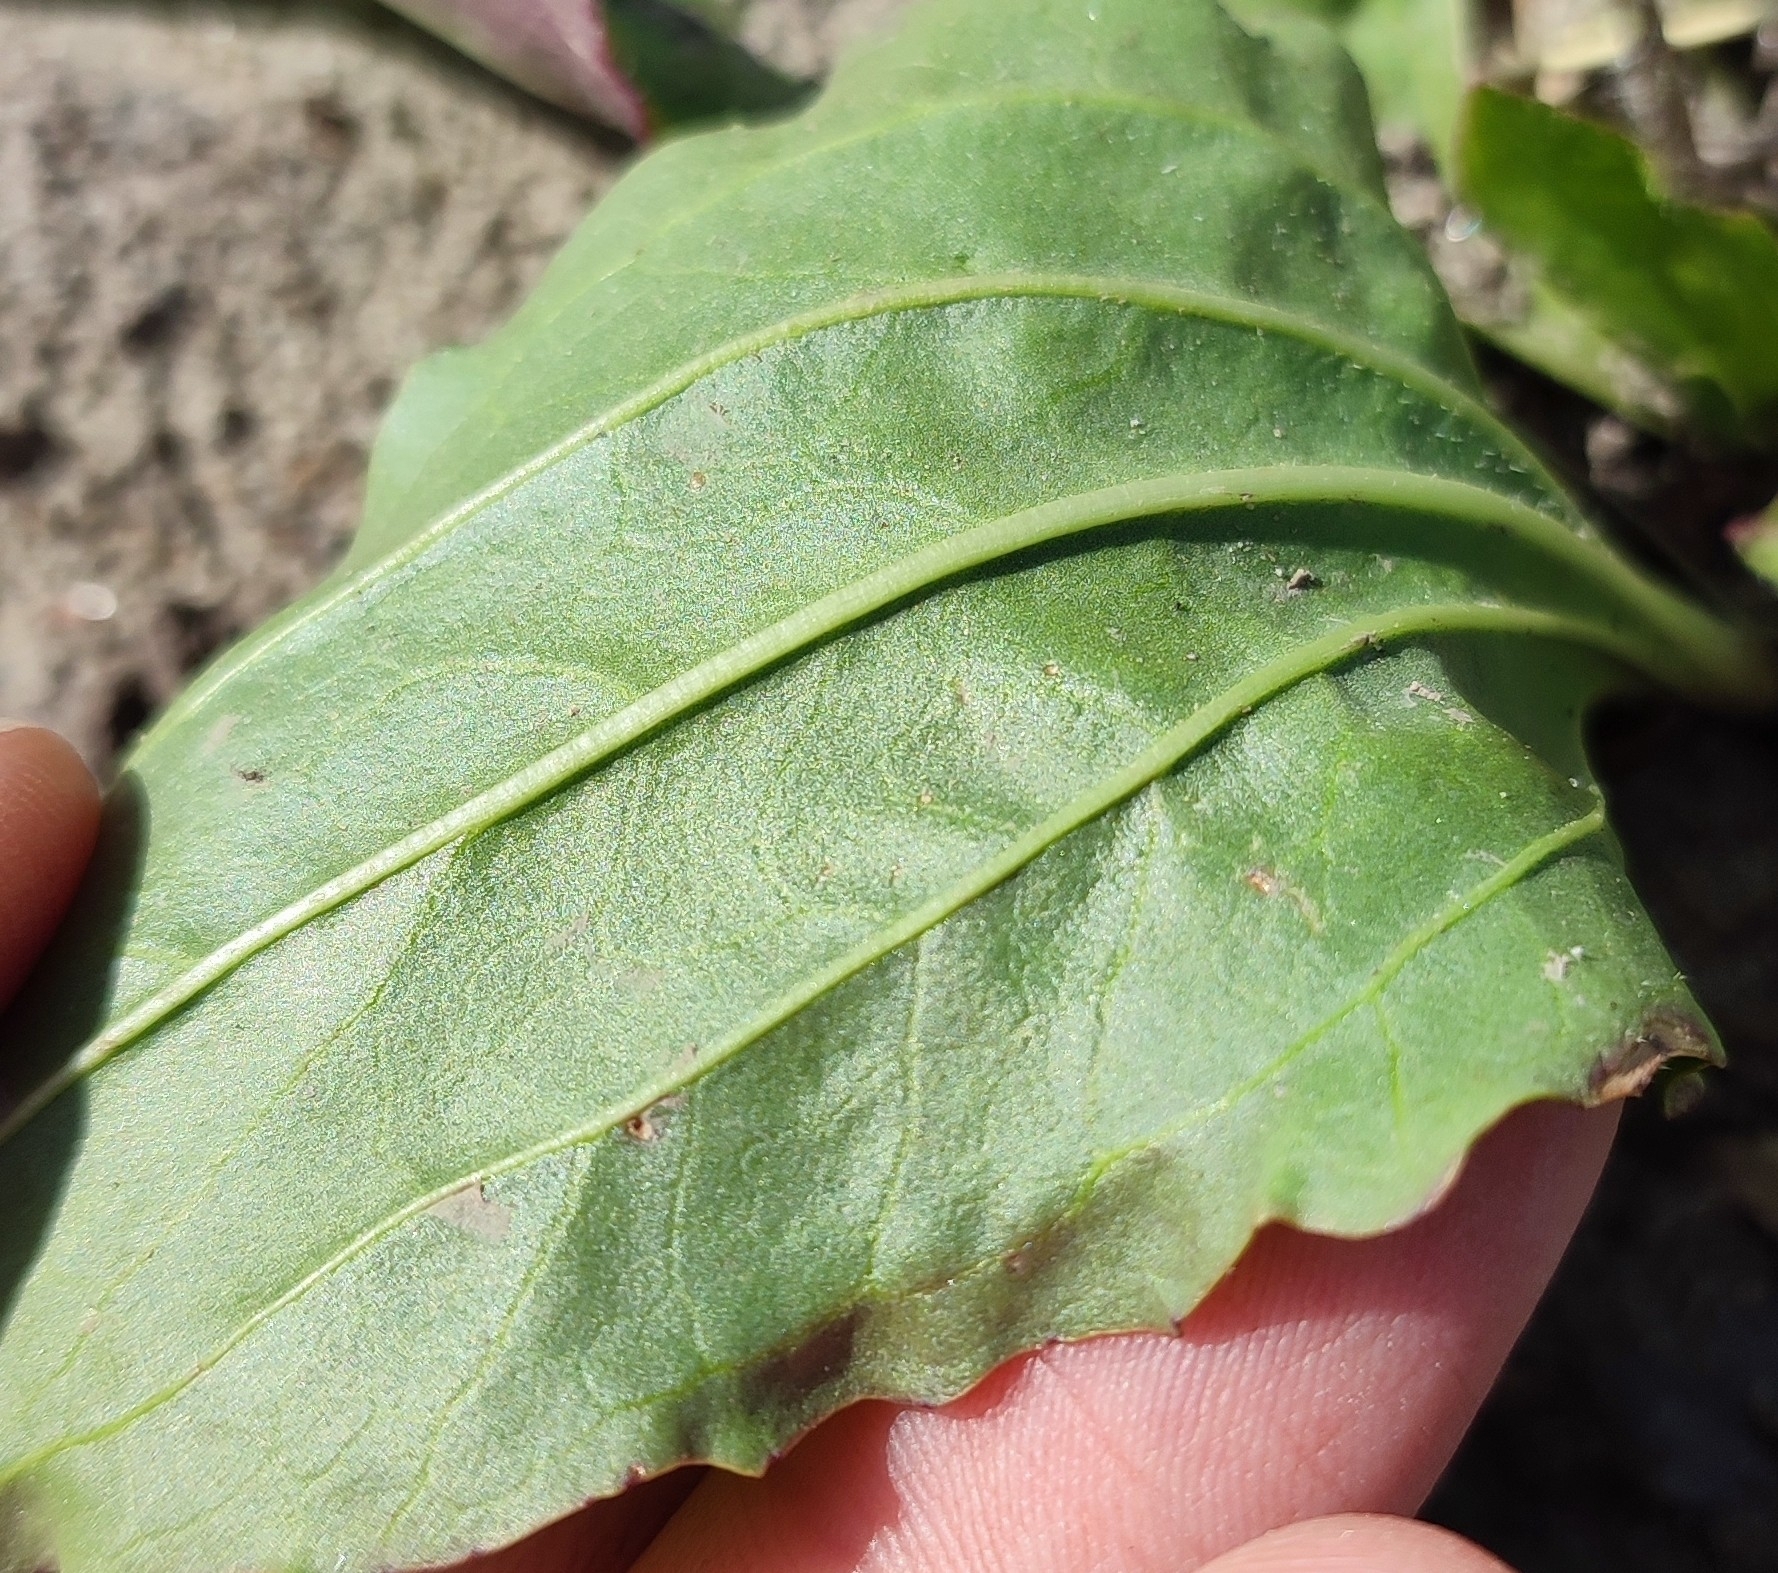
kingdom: Plantae
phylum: Tracheophyta
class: Magnoliopsida
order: Lamiales
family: Plantaginaceae
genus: Plantago
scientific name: Plantago major
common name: Common plantain
